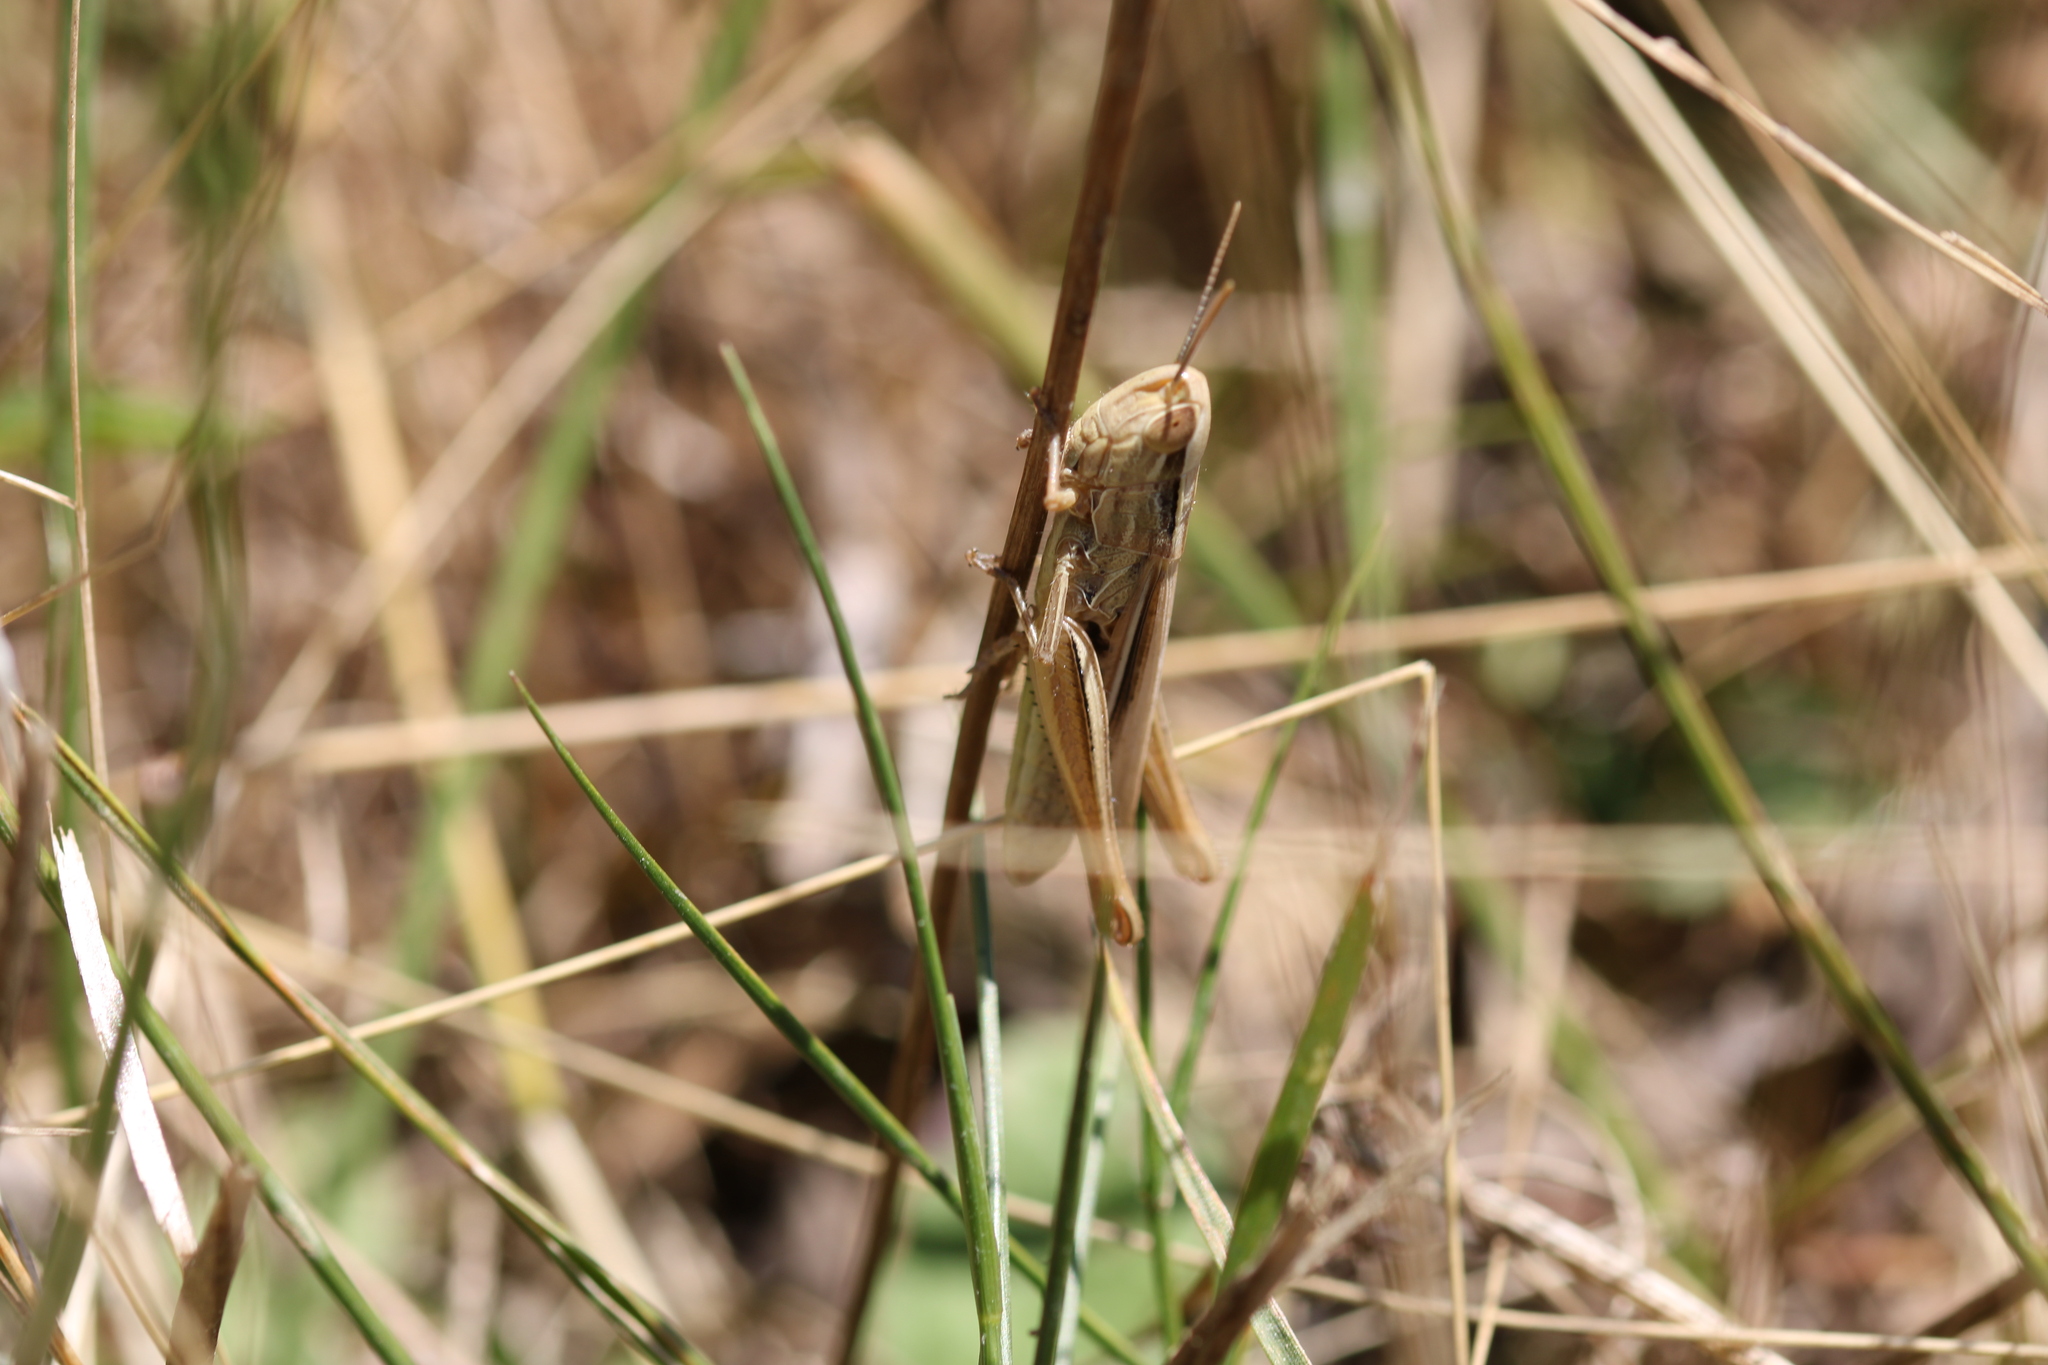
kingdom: Animalia
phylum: Arthropoda
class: Insecta
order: Orthoptera
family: Acrididae
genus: Euchorthippus
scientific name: Euchorthippus elegantulus
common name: Elegant straw grasshopper
